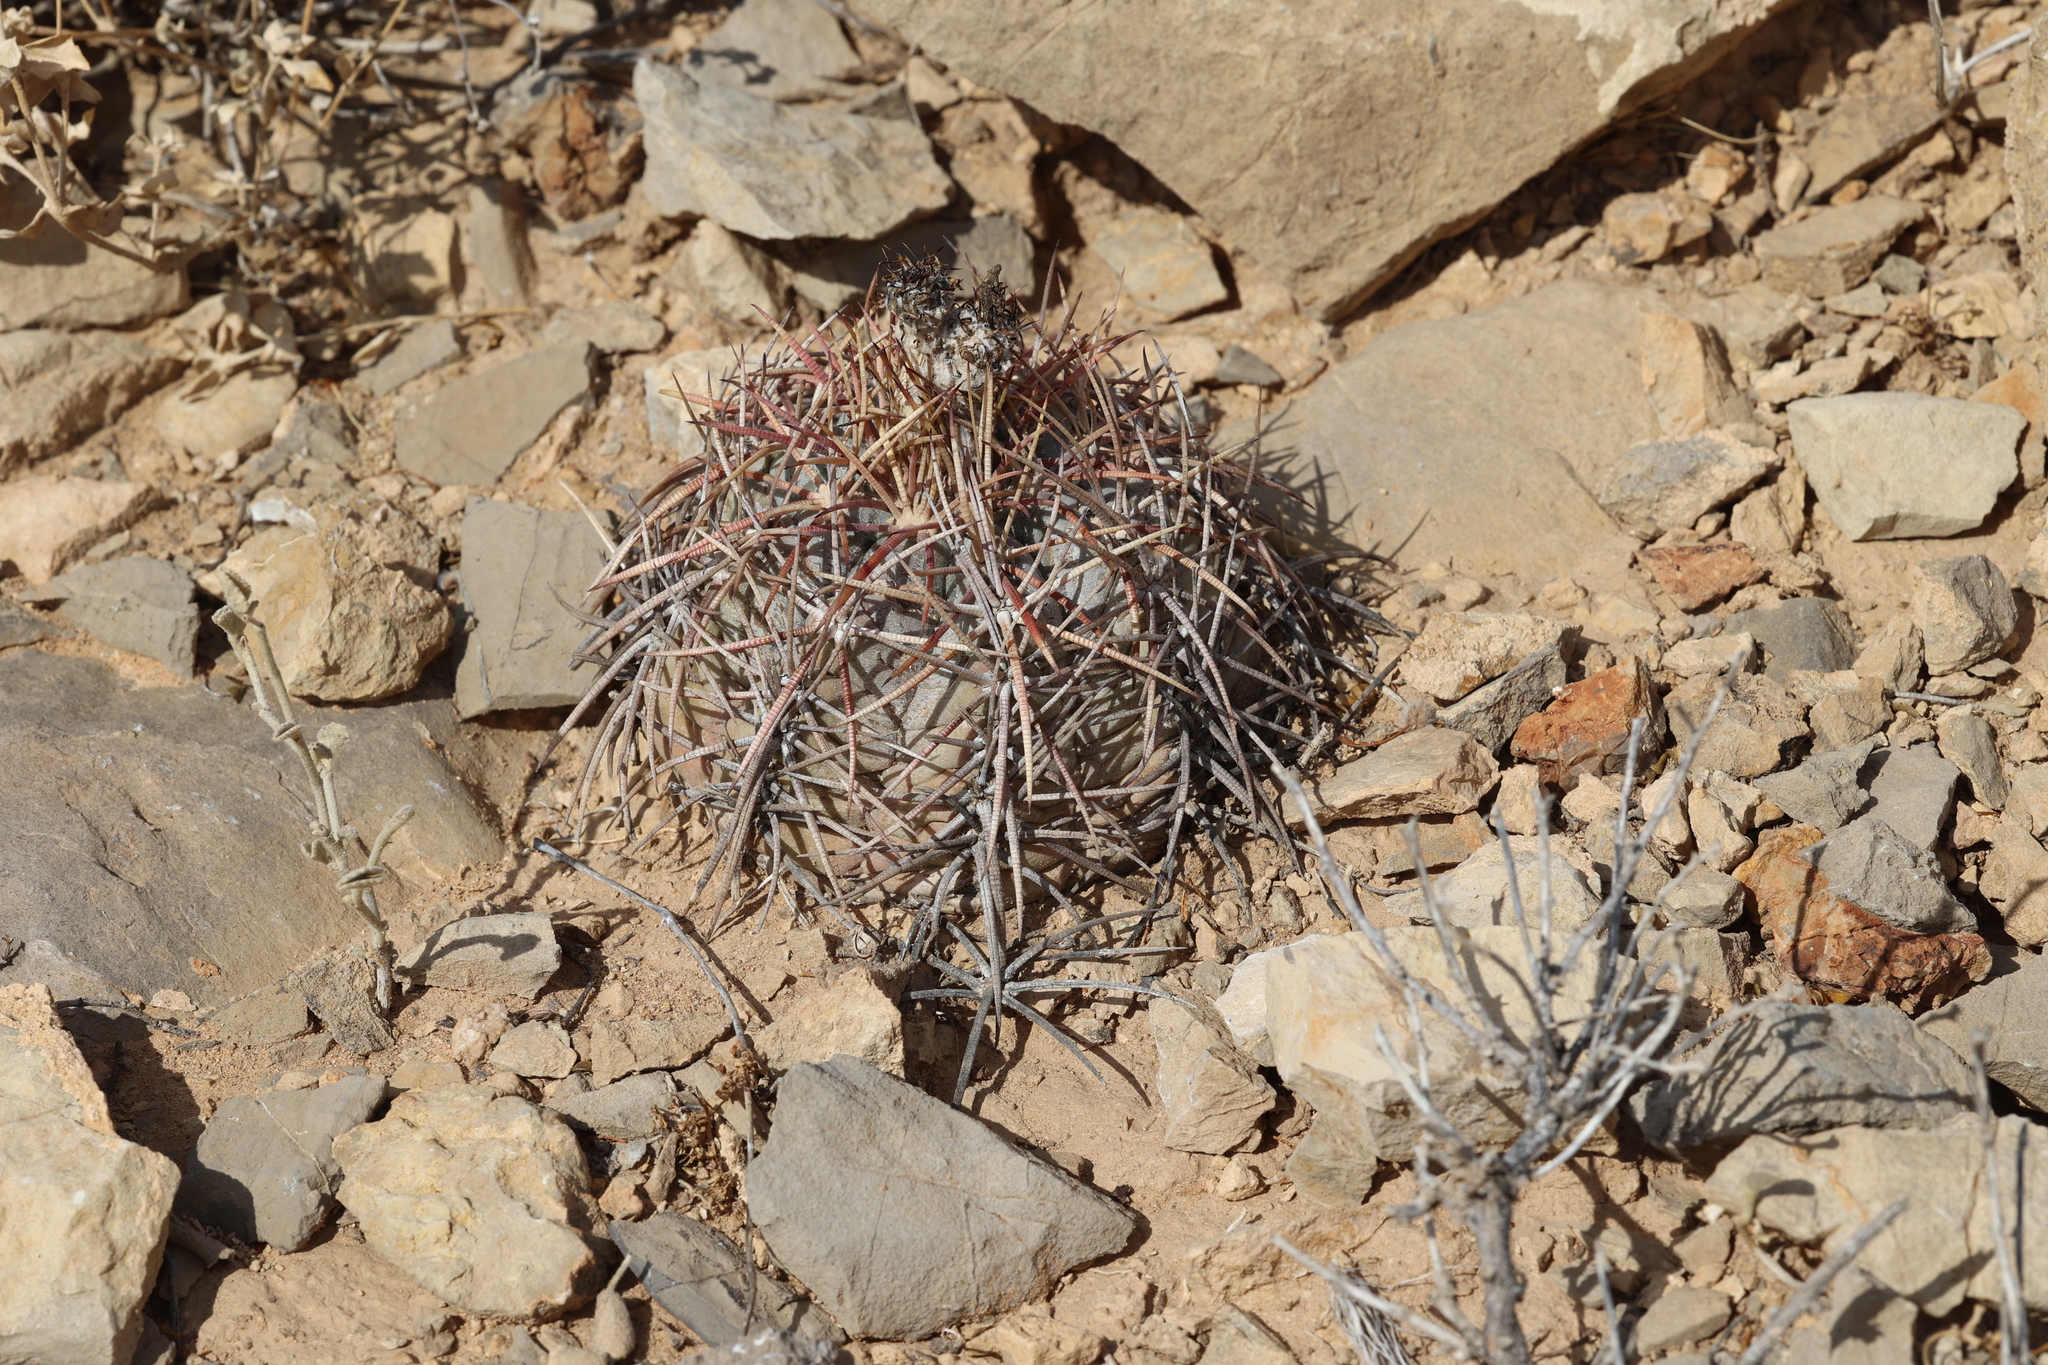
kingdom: Plantae
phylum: Tracheophyta
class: Magnoliopsida
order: Caryophyllales
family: Cactaceae
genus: Echinocactus
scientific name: Echinocactus horizonthalonius
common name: Devilshead
